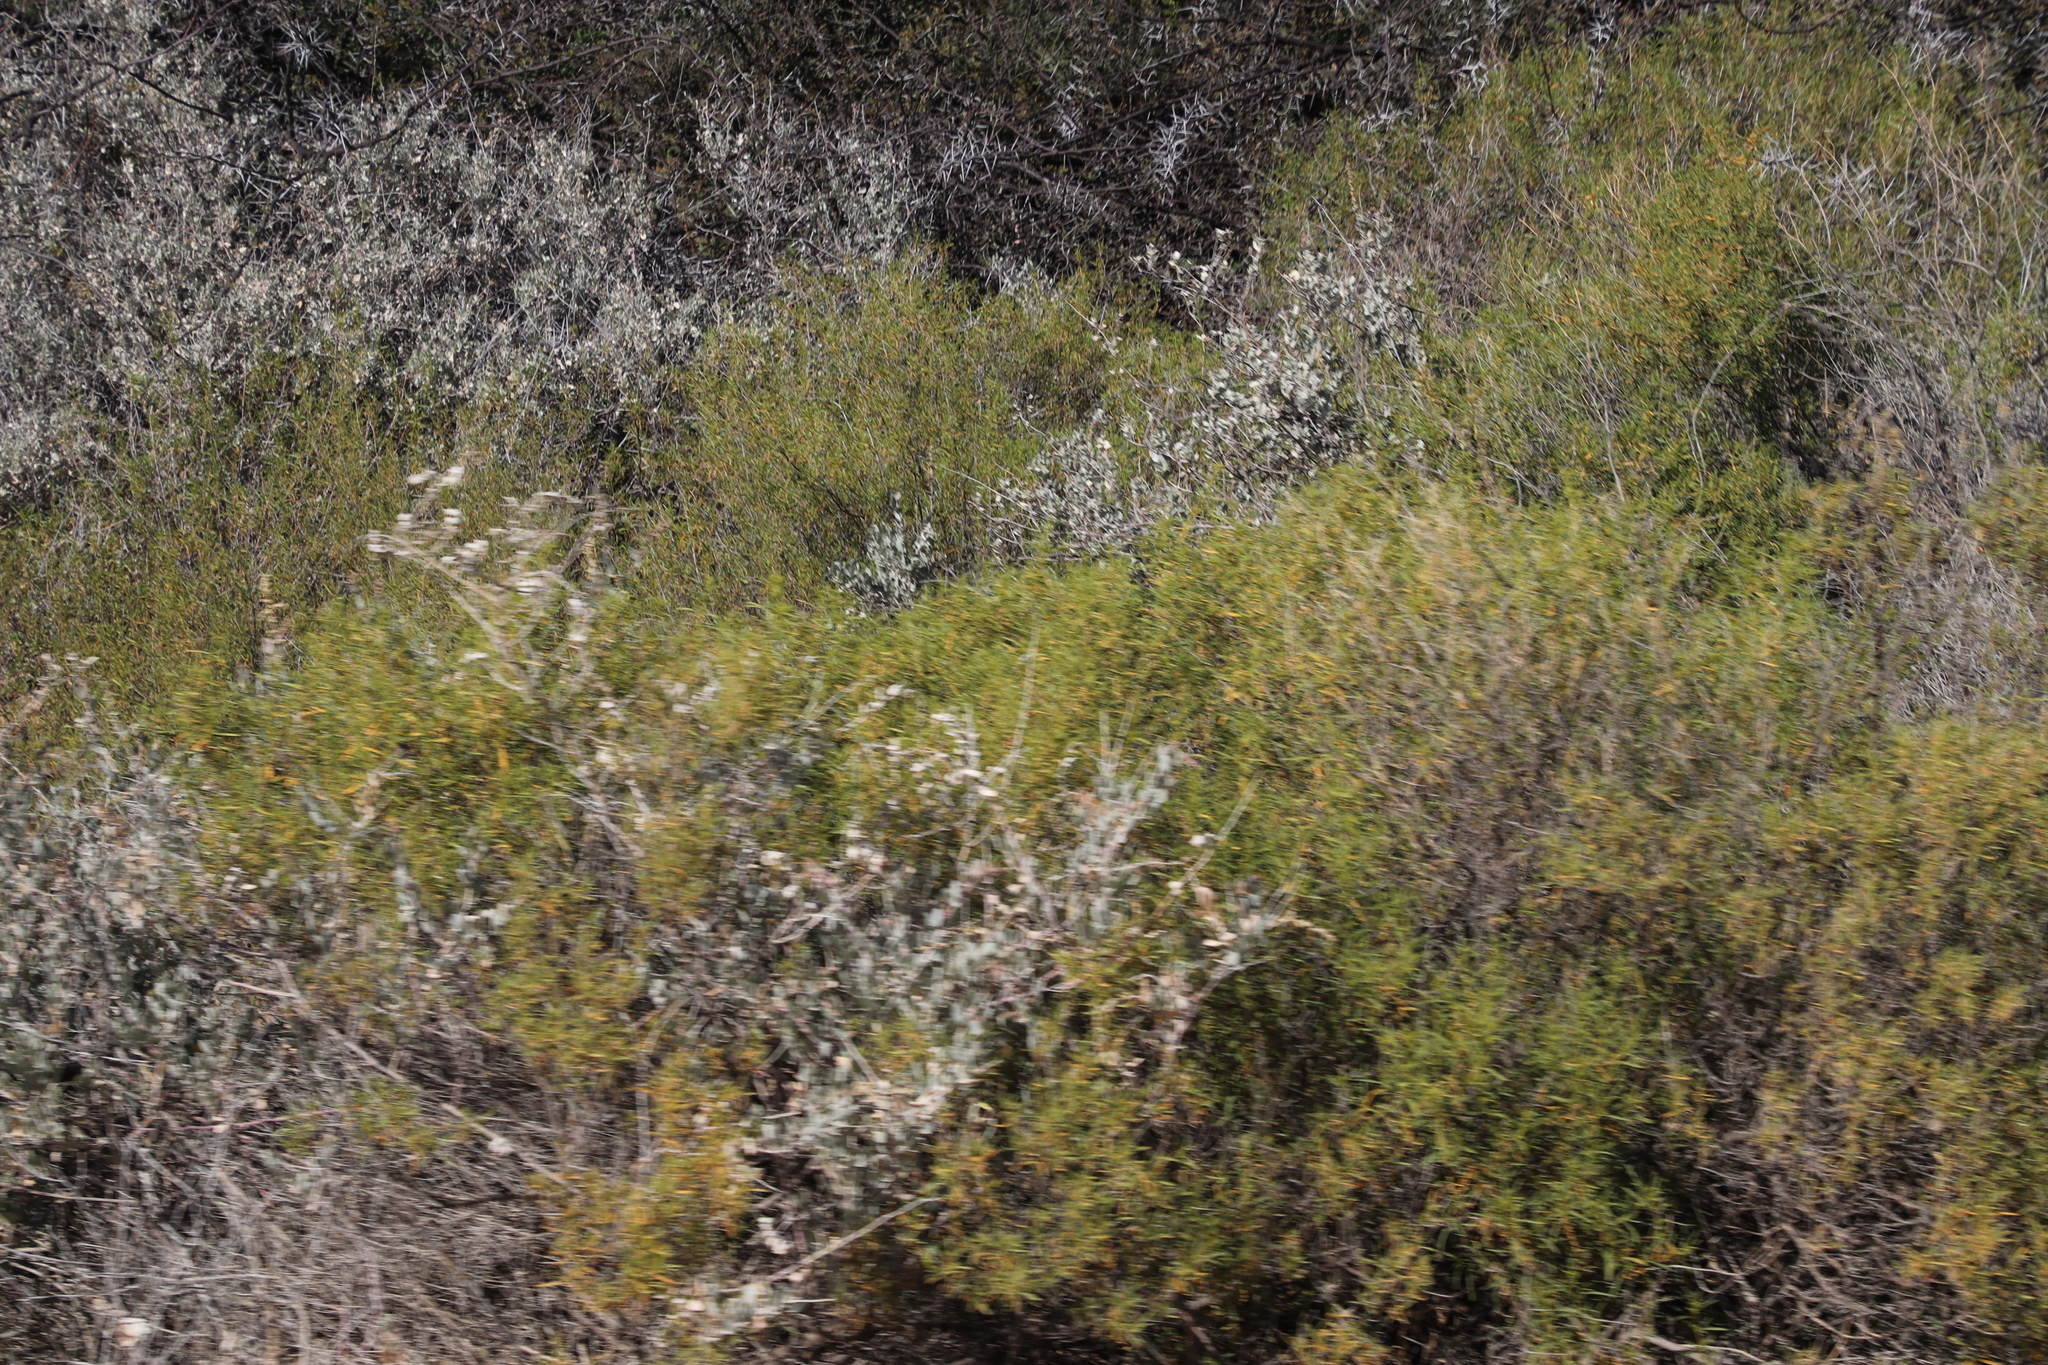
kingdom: Plantae
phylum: Tracheophyta
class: Magnoliopsida
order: Caryophyllales
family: Aizoaceae
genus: Aizoon
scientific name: Aizoon africanum
